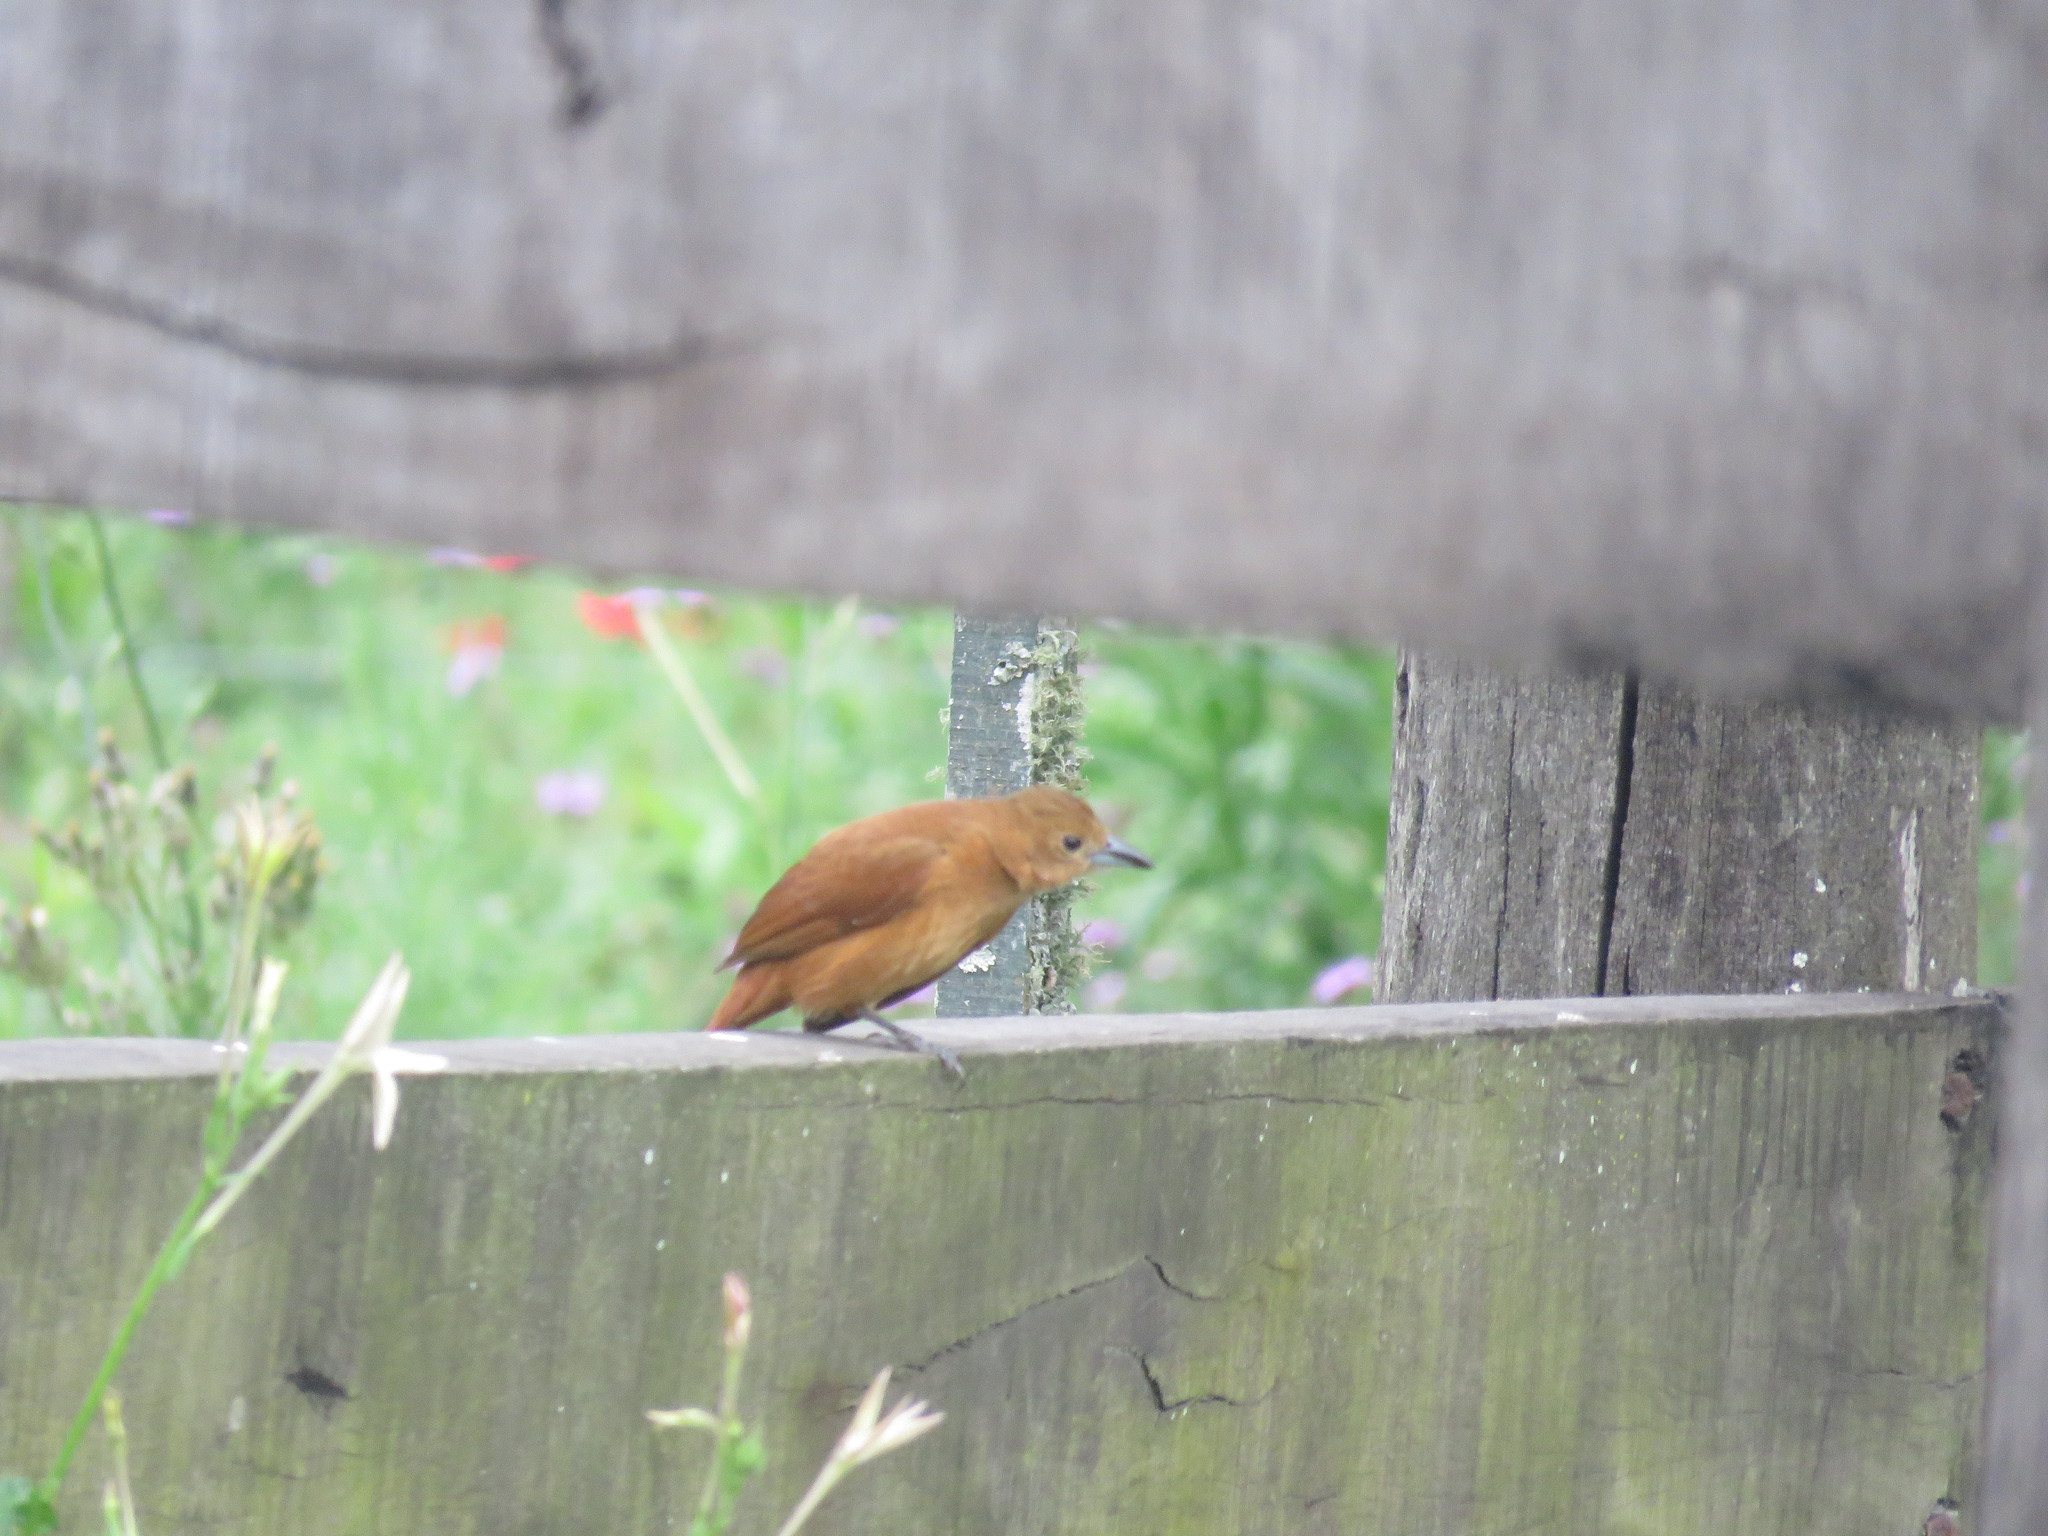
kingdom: Animalia
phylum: Chordata
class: Aves
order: Passeriformes
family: Thraupidae
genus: Tachyphonus
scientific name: Tachyphonus rufus
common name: White-lined tanager
